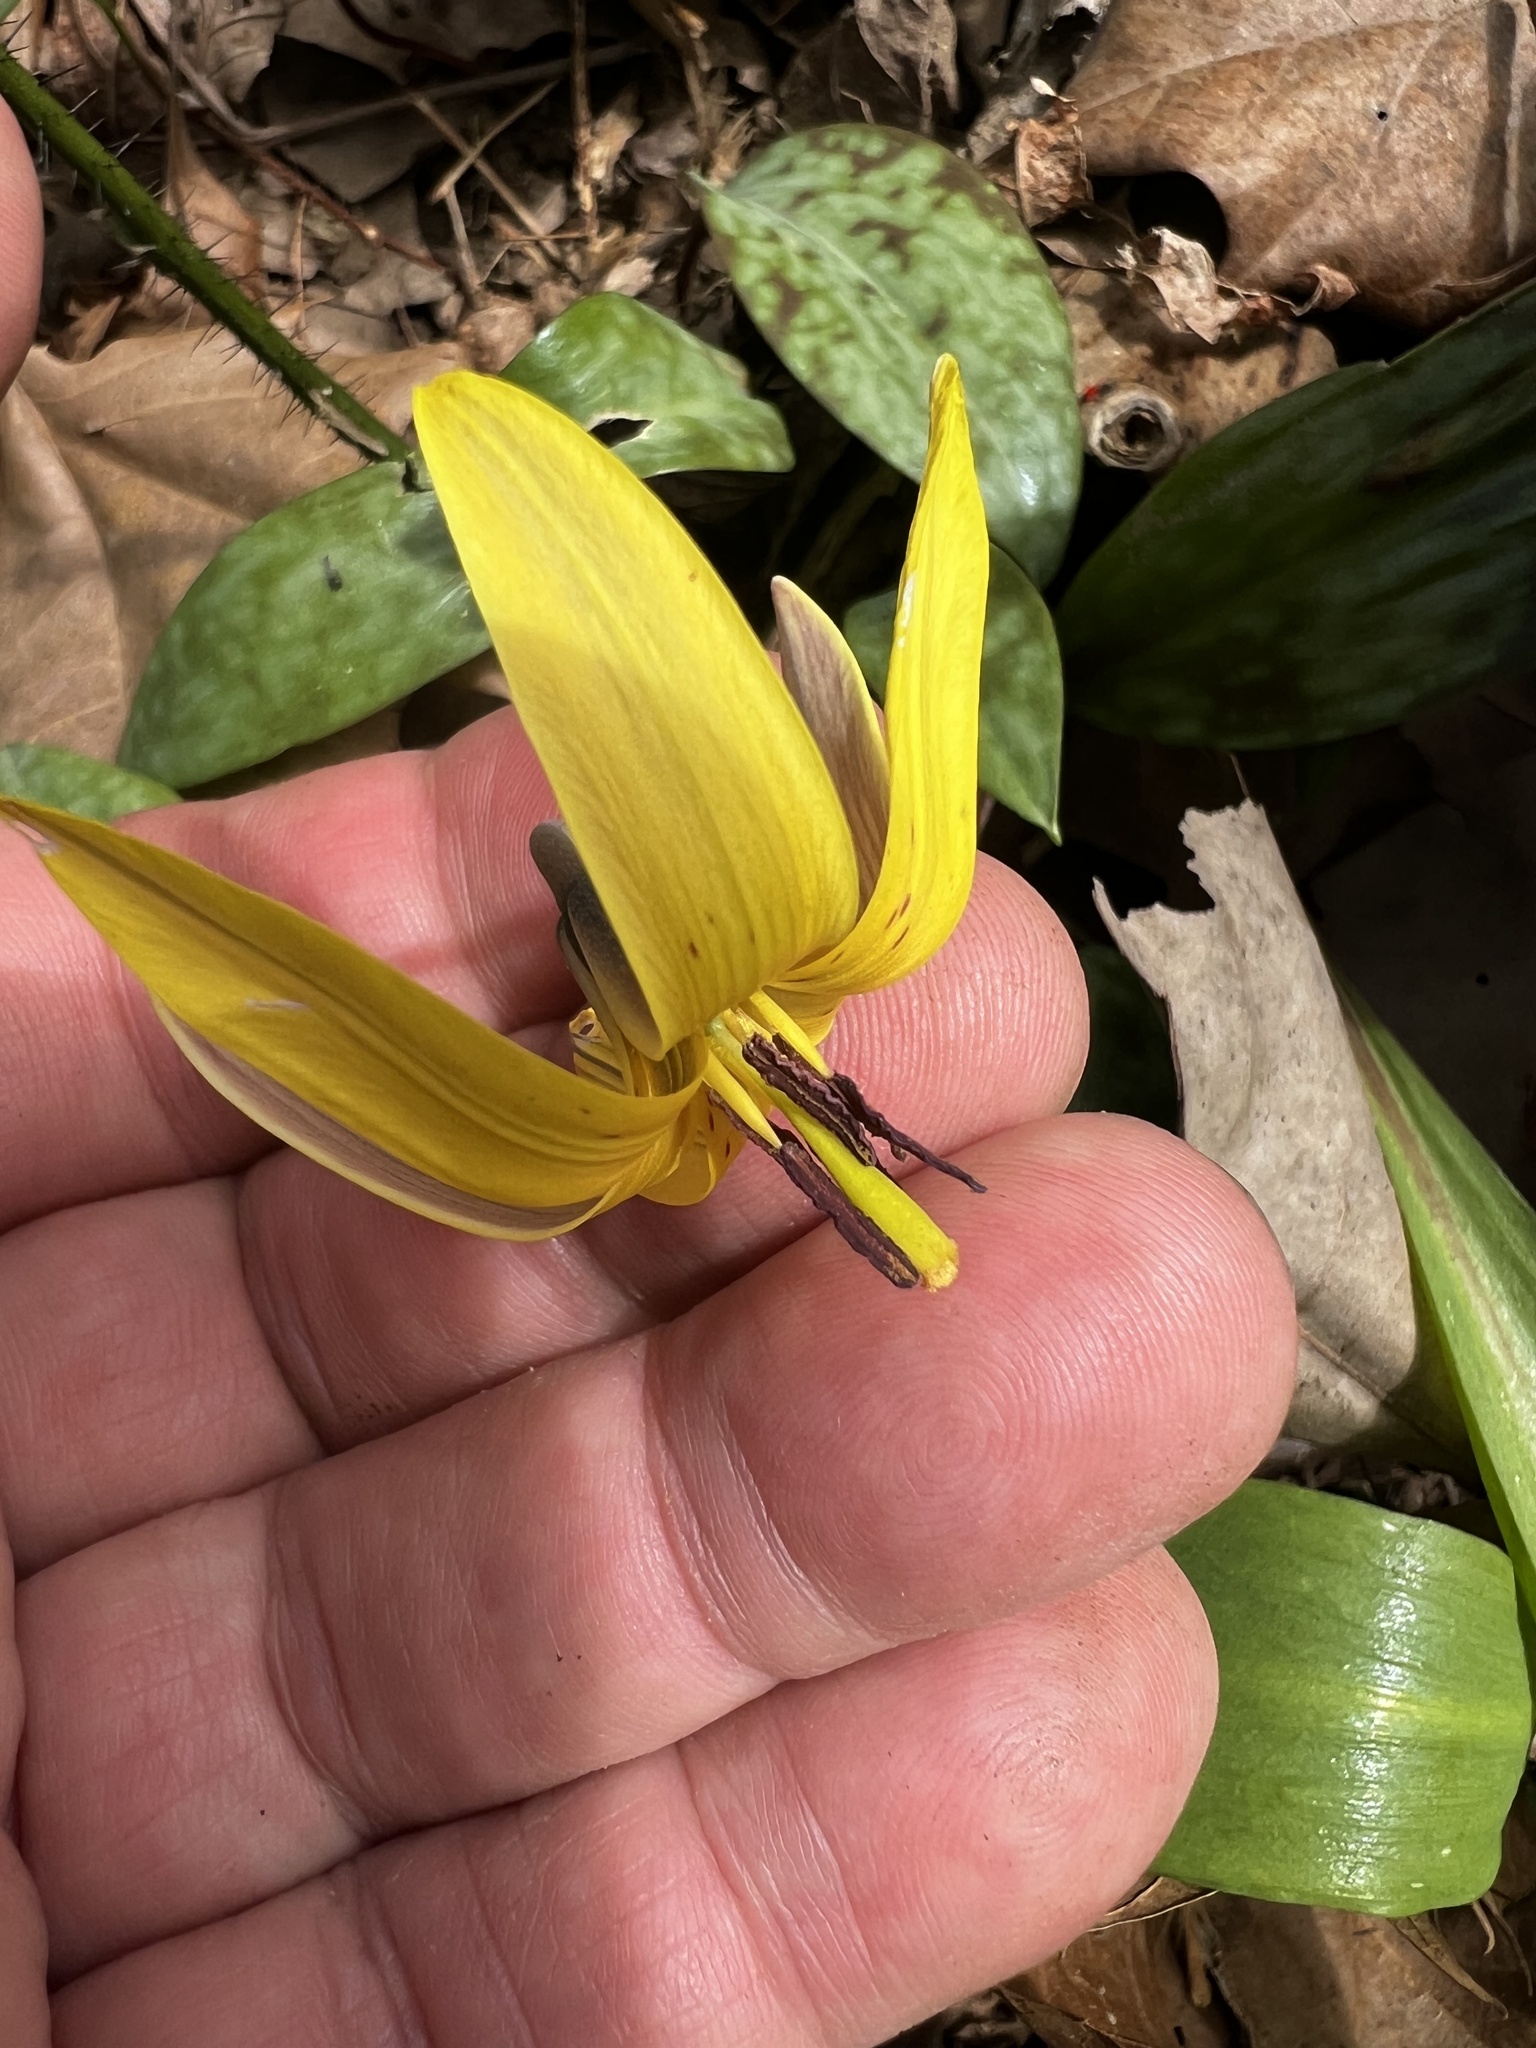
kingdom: Plantae
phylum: Tracheophyta
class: Liliopsida
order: Liliales
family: Liliaceae
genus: Erythronium
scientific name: Erythronium americanum
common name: Yellow adder's-tongue
